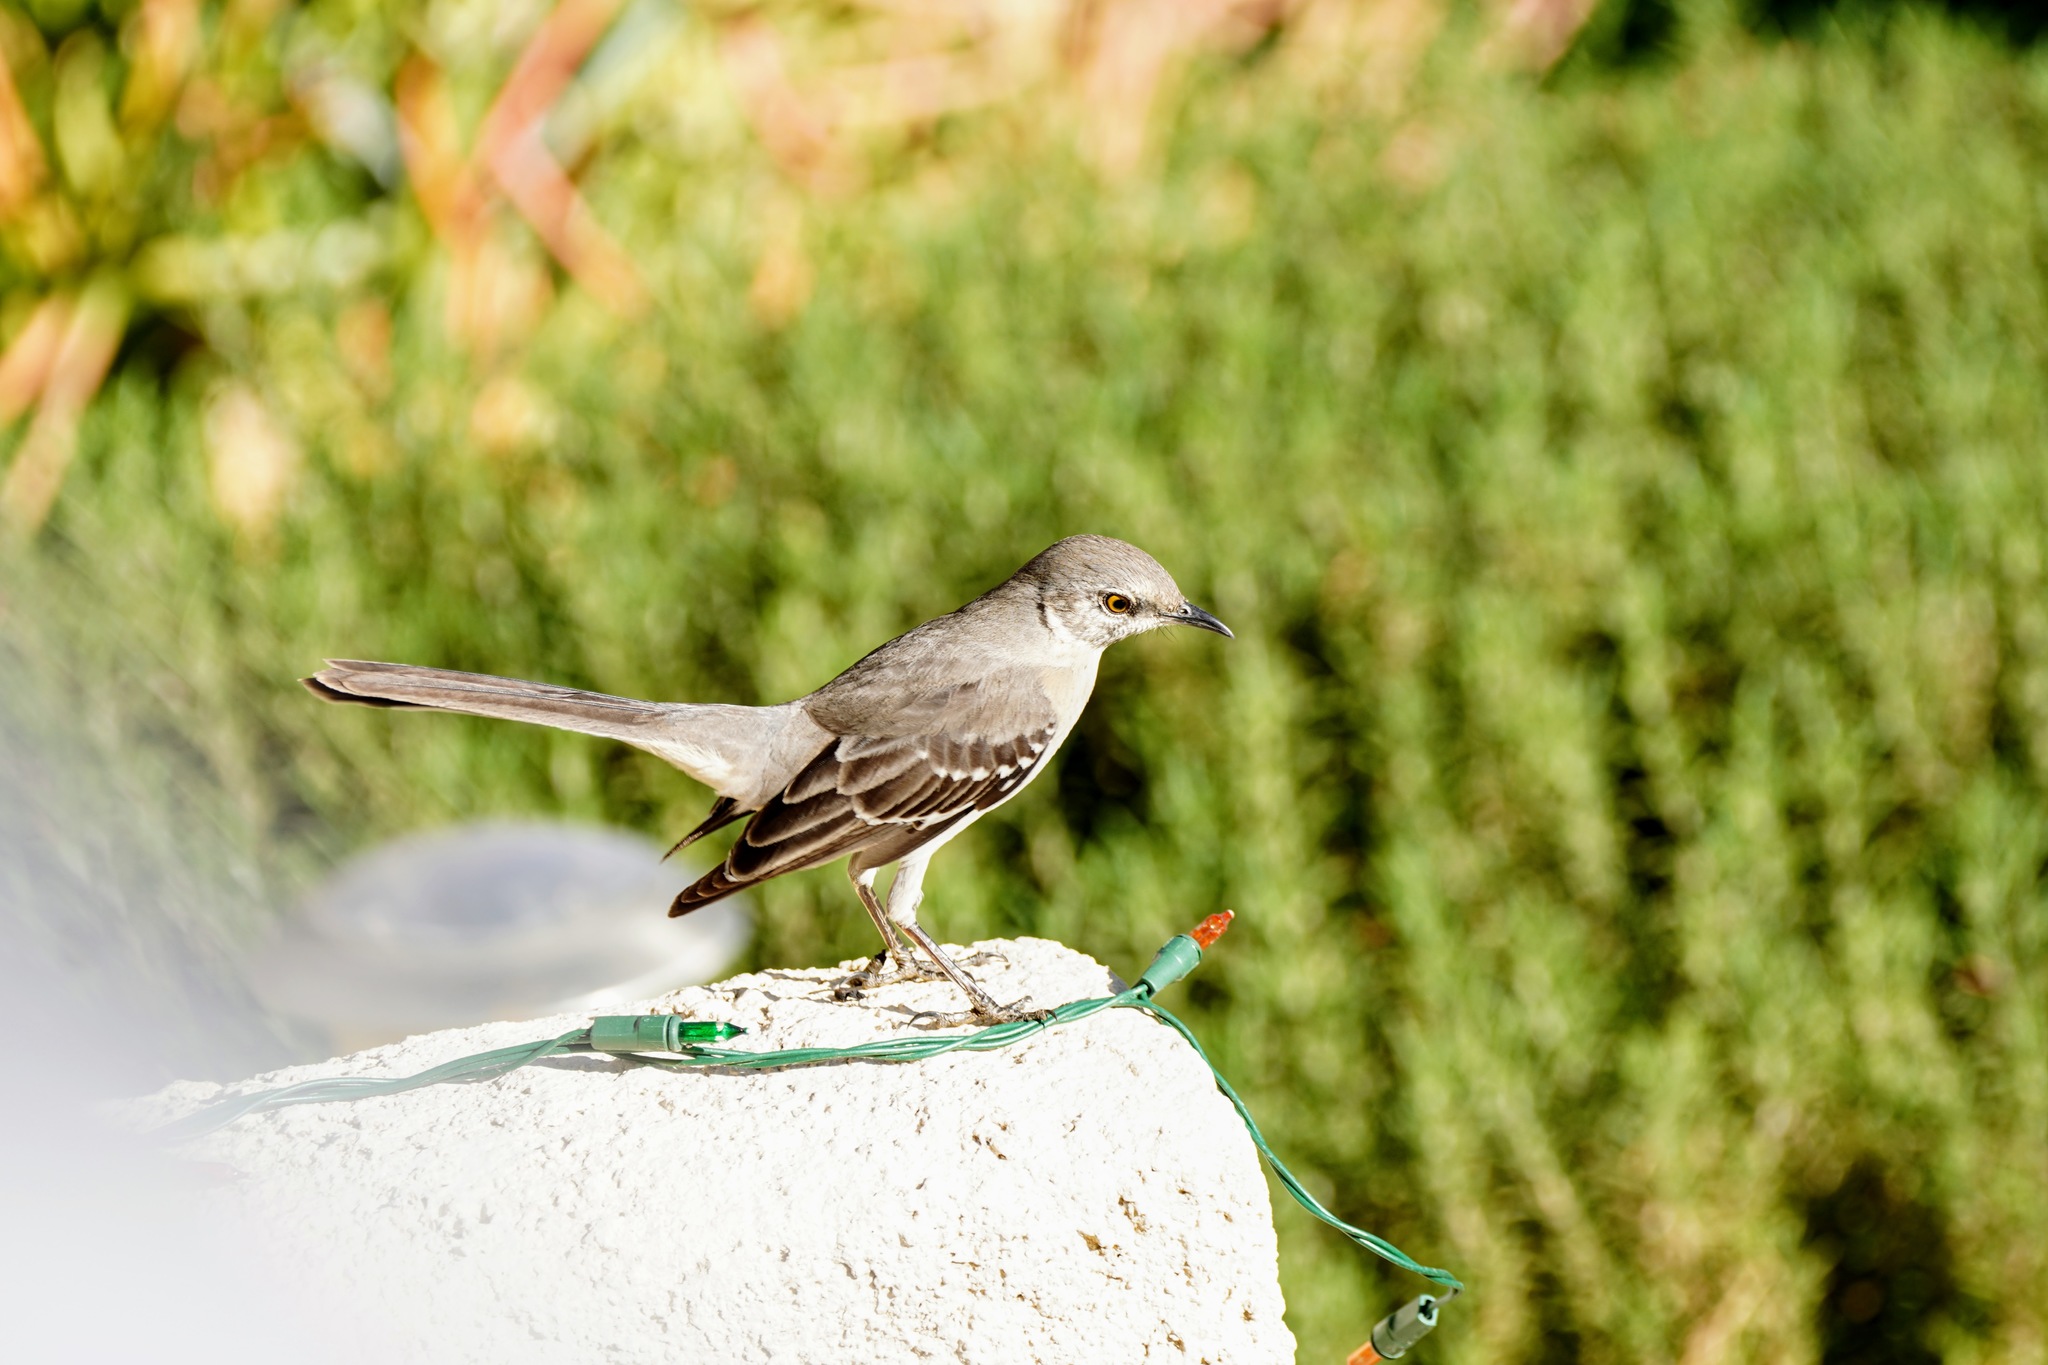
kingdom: Animalia
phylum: Chordata
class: Aves
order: Passeriformes
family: Mimidae
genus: Mimus
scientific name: Mimus polyglottos
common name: Northern mockingbird
